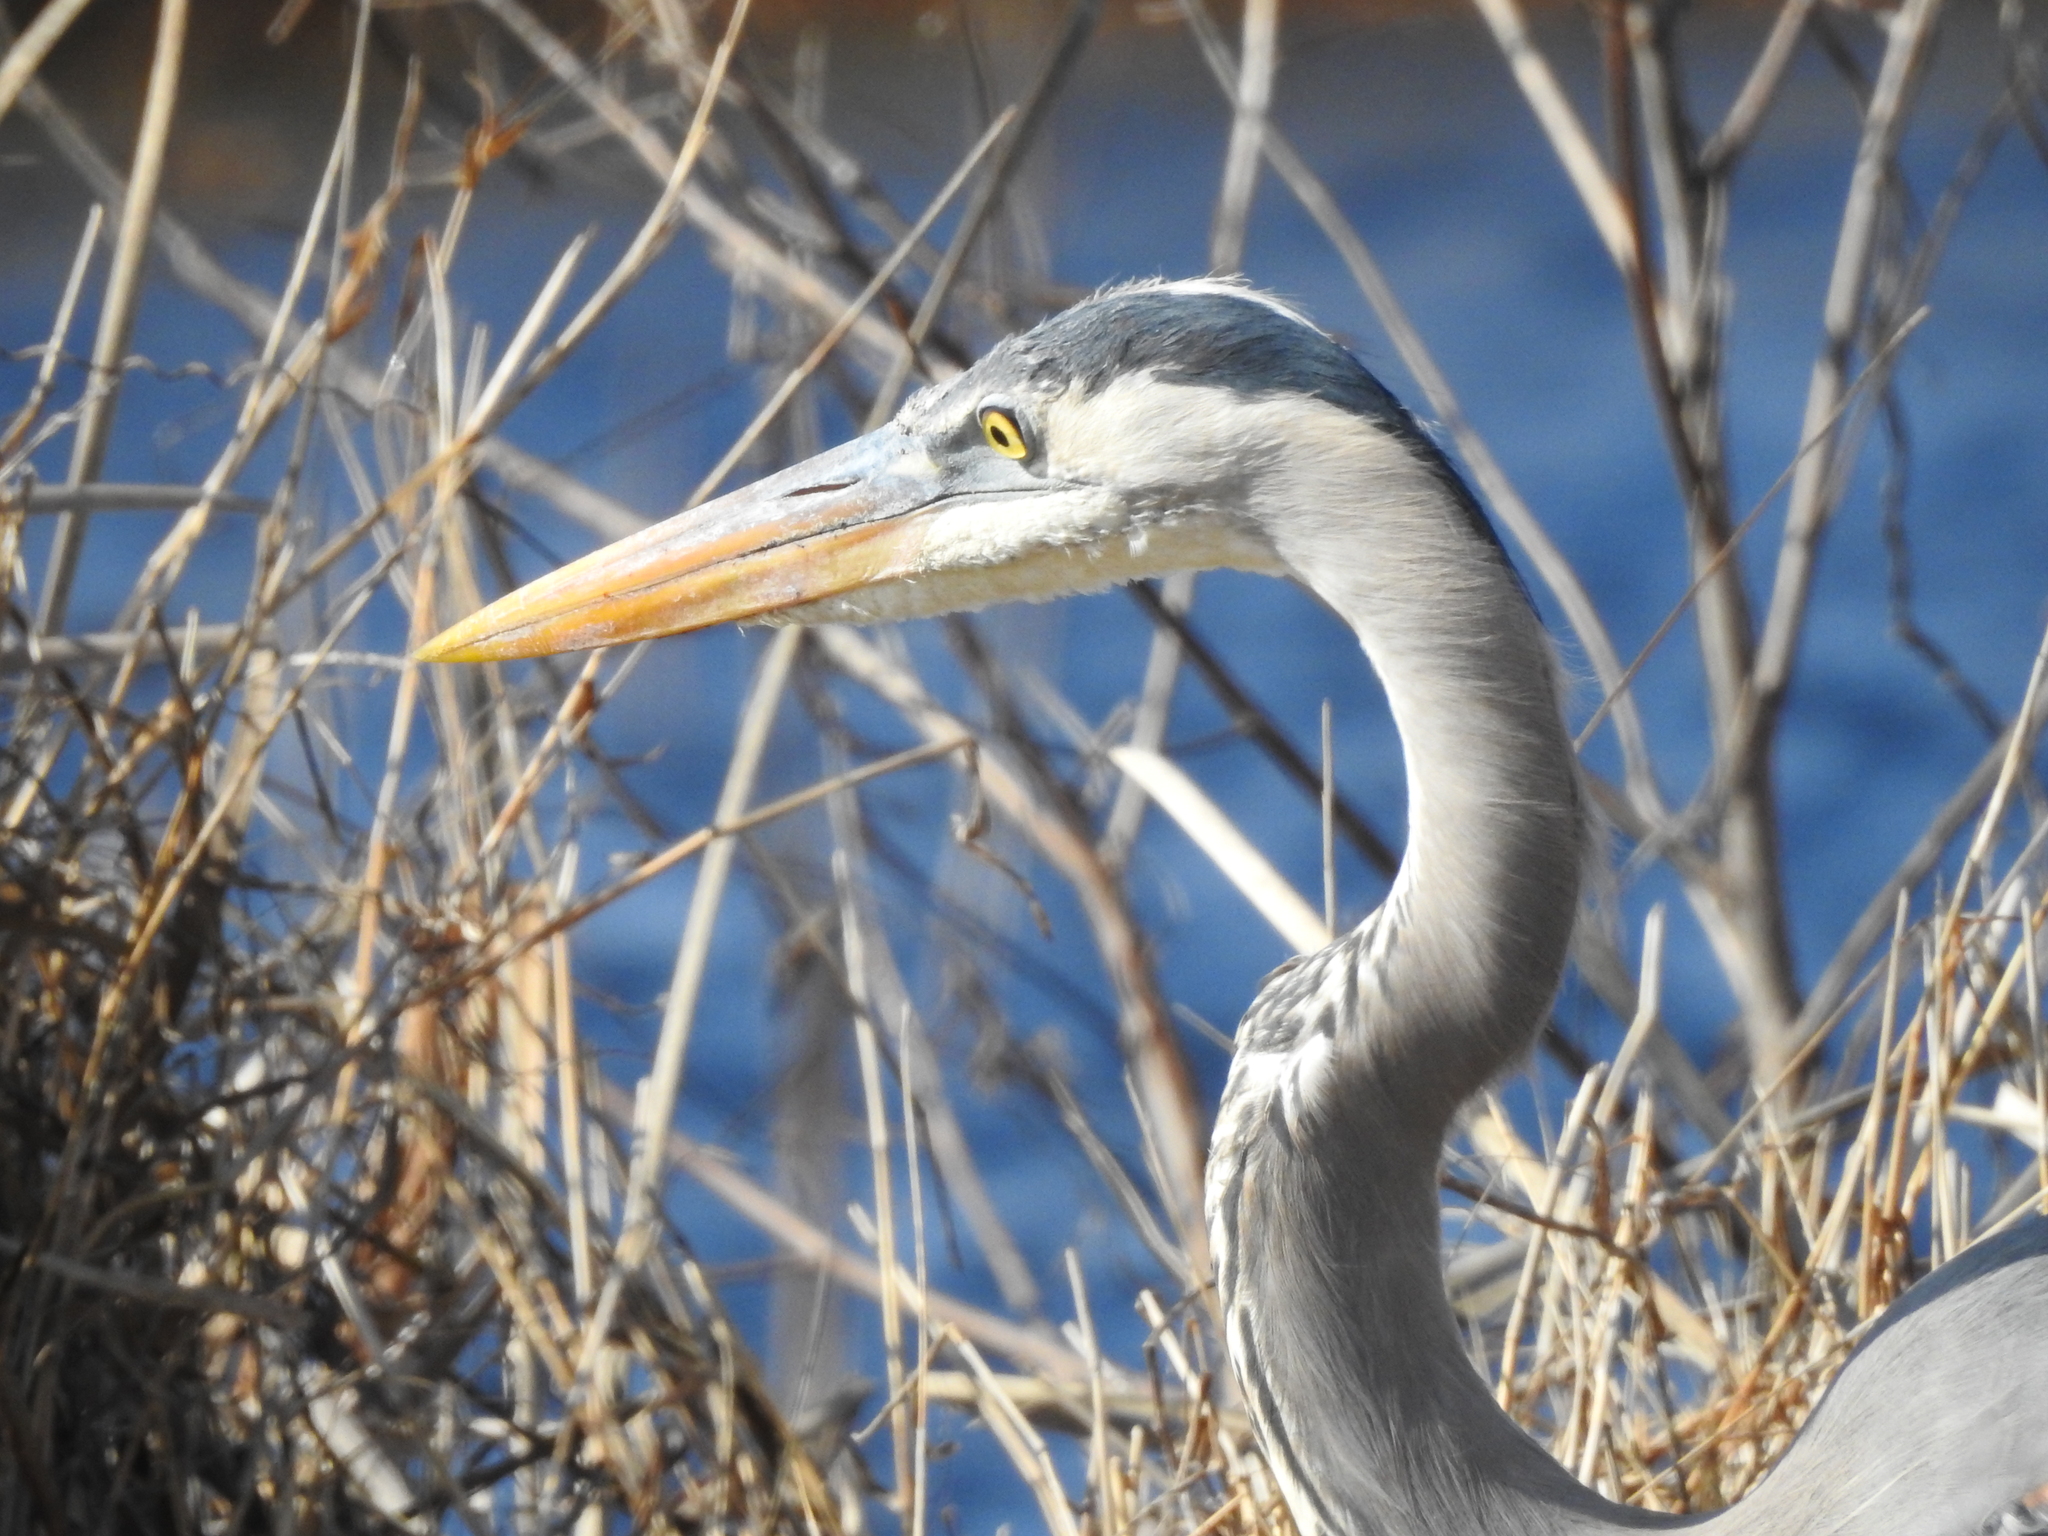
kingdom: Animalia
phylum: Chordata
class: Aves
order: Pelecaniformes
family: Ardeidae
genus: Ardea
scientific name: Ardea herodias
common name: Great blue heron
